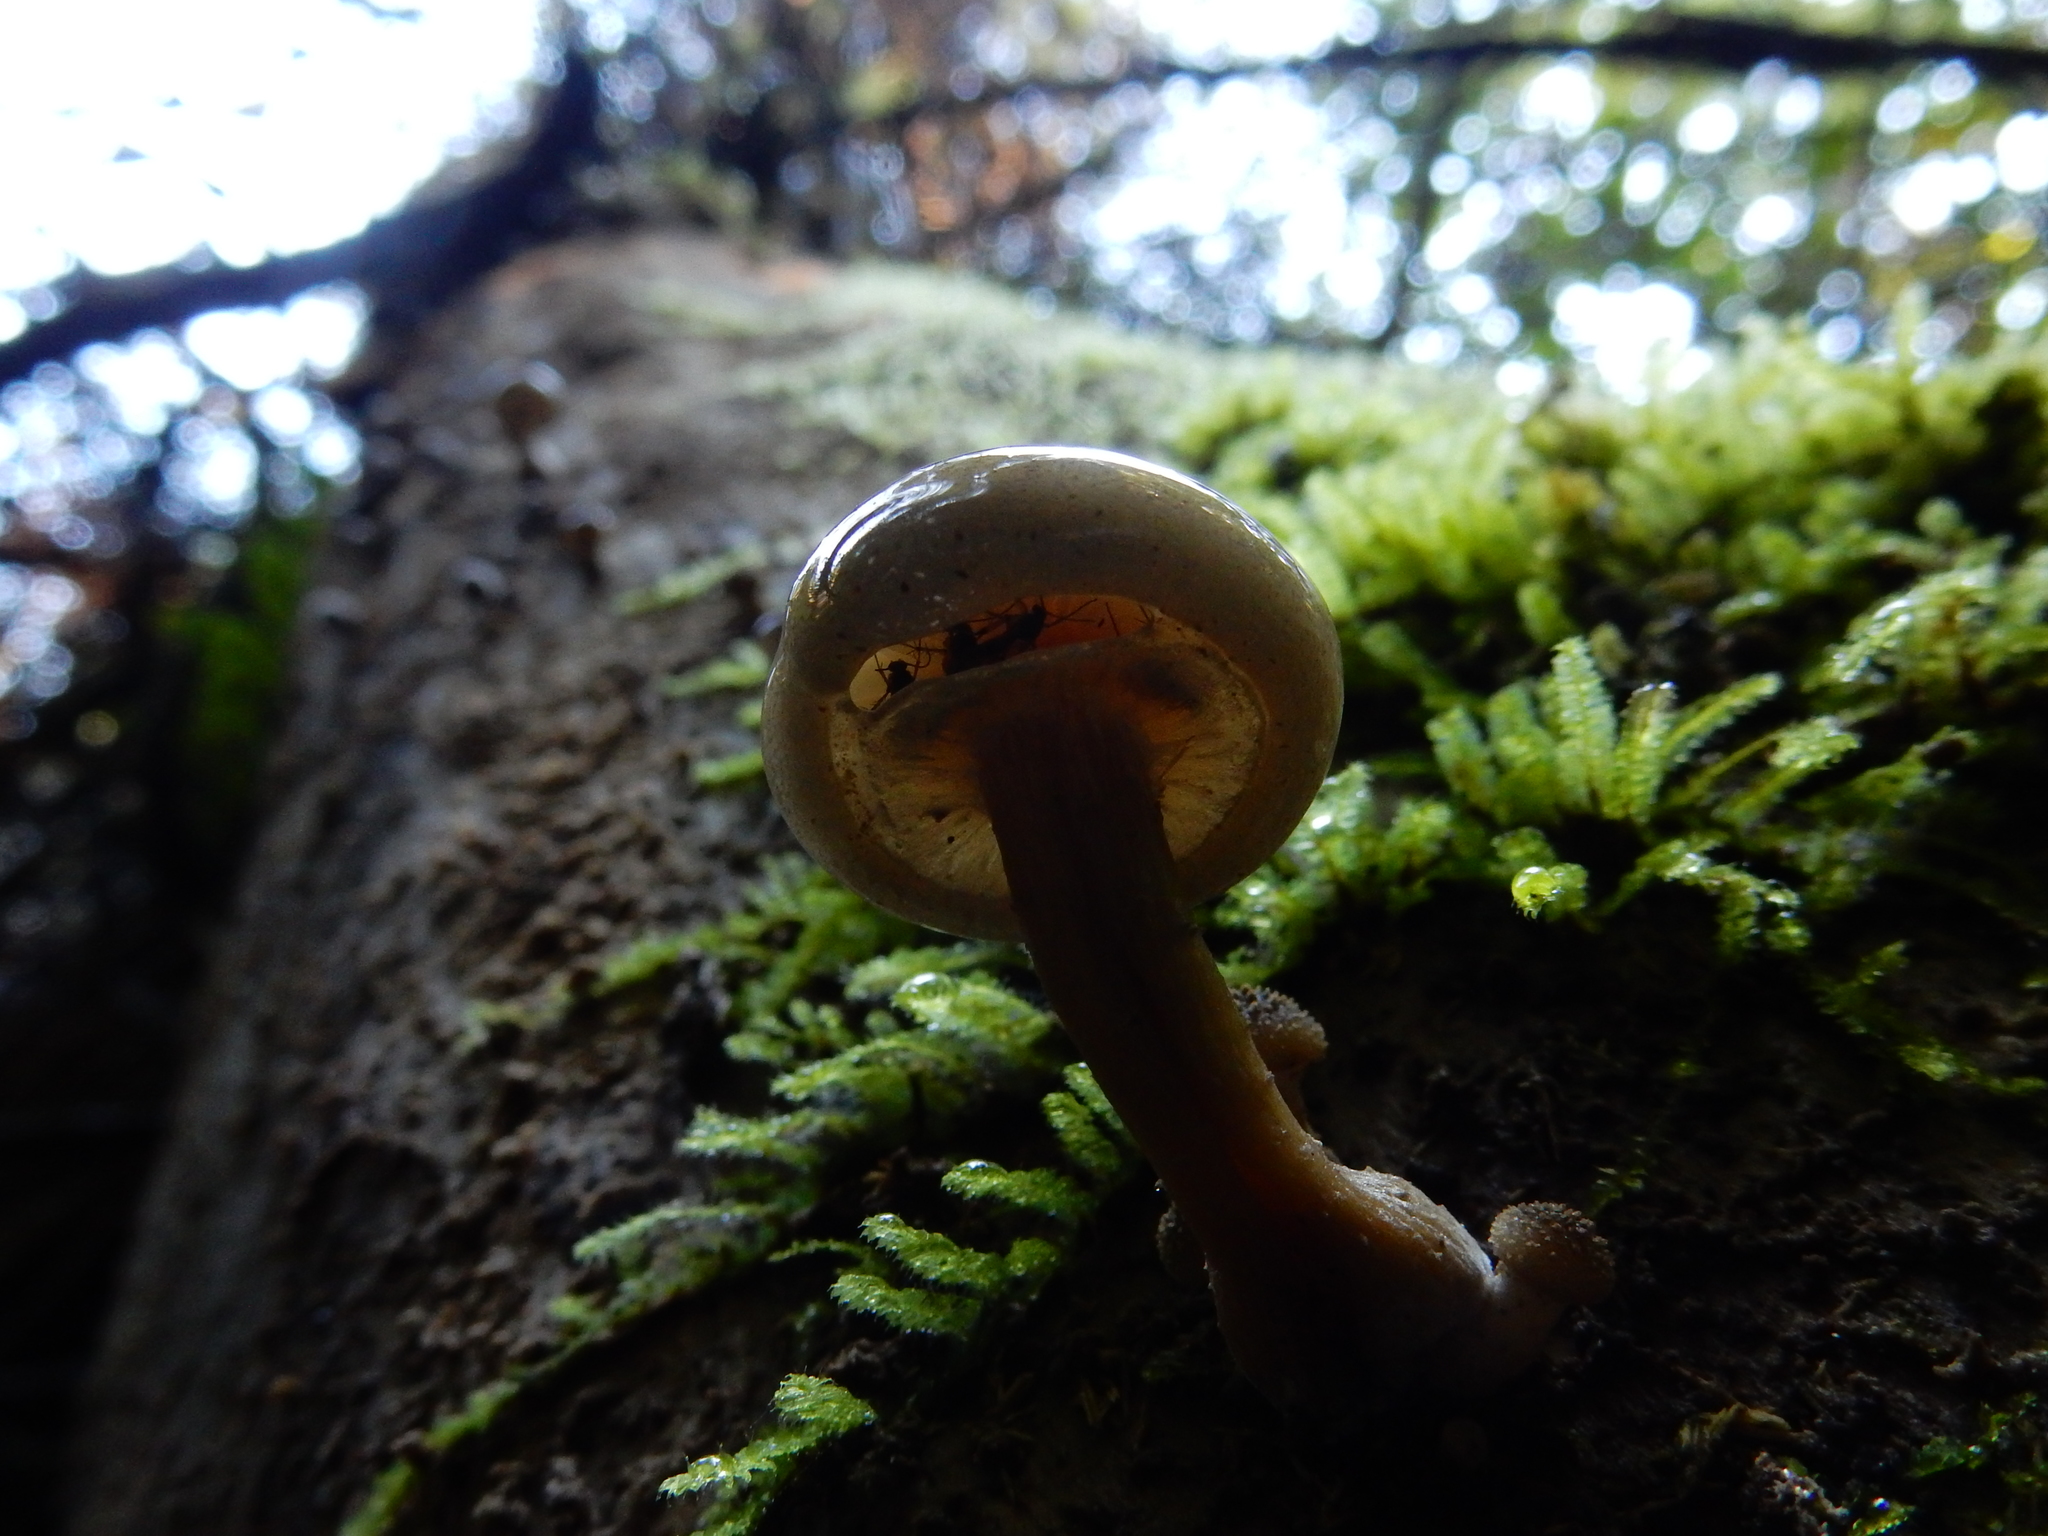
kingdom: Fungi
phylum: Basidiomycota
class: Agaricomycetes
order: Agaricales
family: Physalacriaceae
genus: Armillaria
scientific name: Armillaria novae-zelandiae
